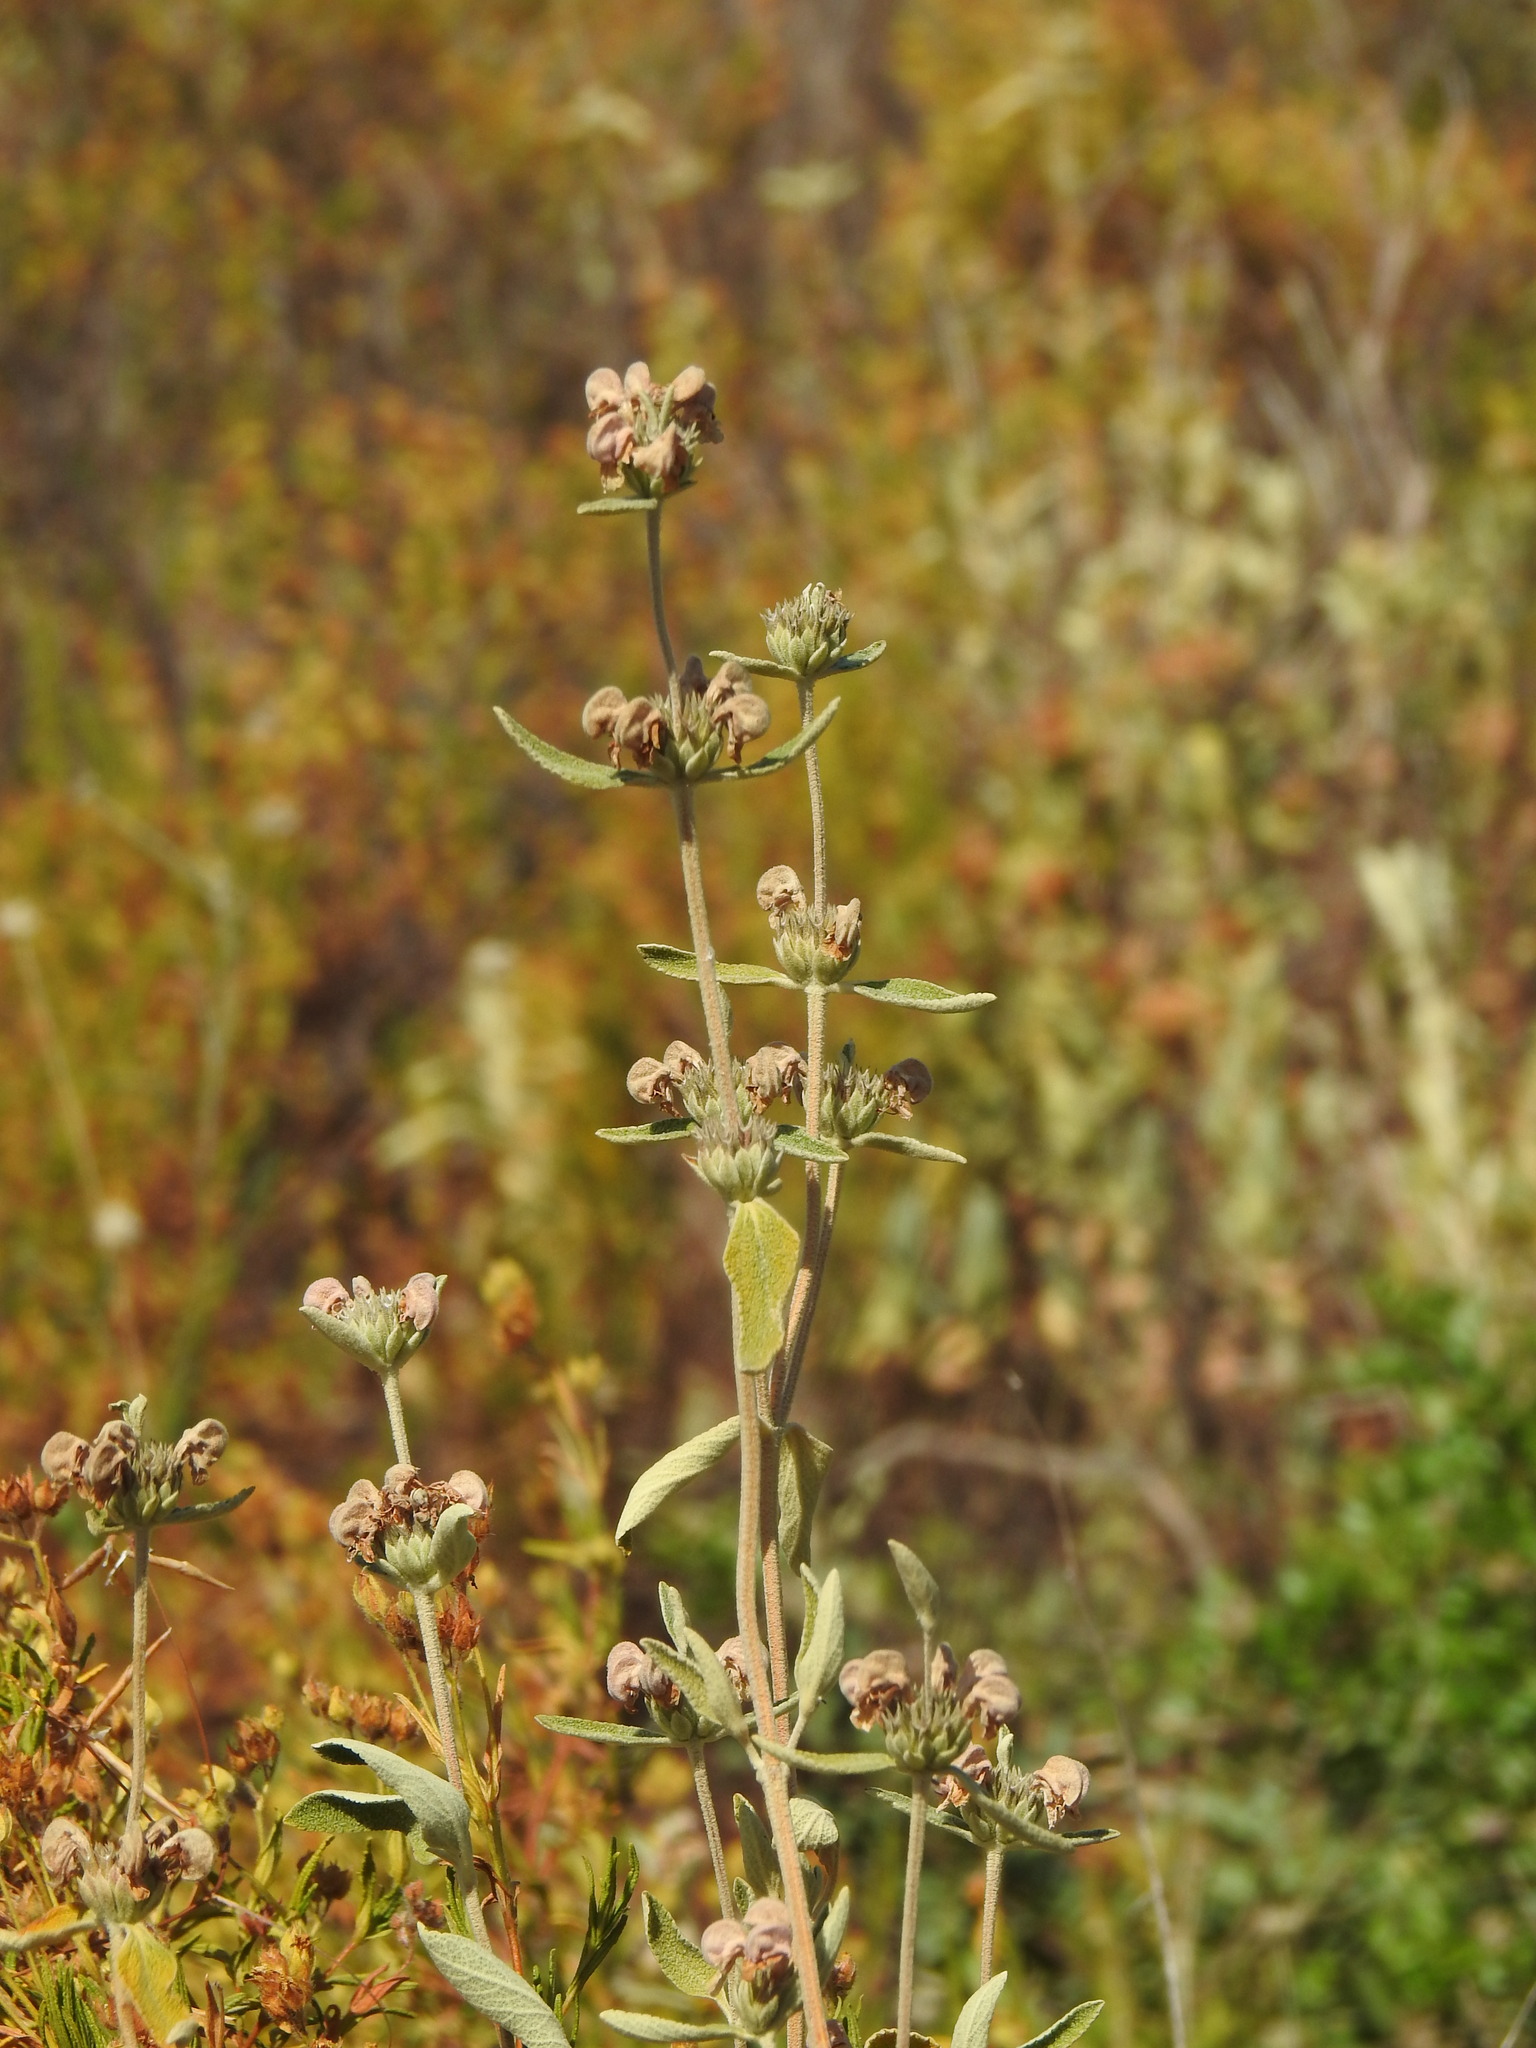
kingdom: Plantae
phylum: Tracheophyta
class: Magnoliopsida
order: Lamiales
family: Lamiaceae
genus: Phlomis
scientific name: Phlomis purpurea
